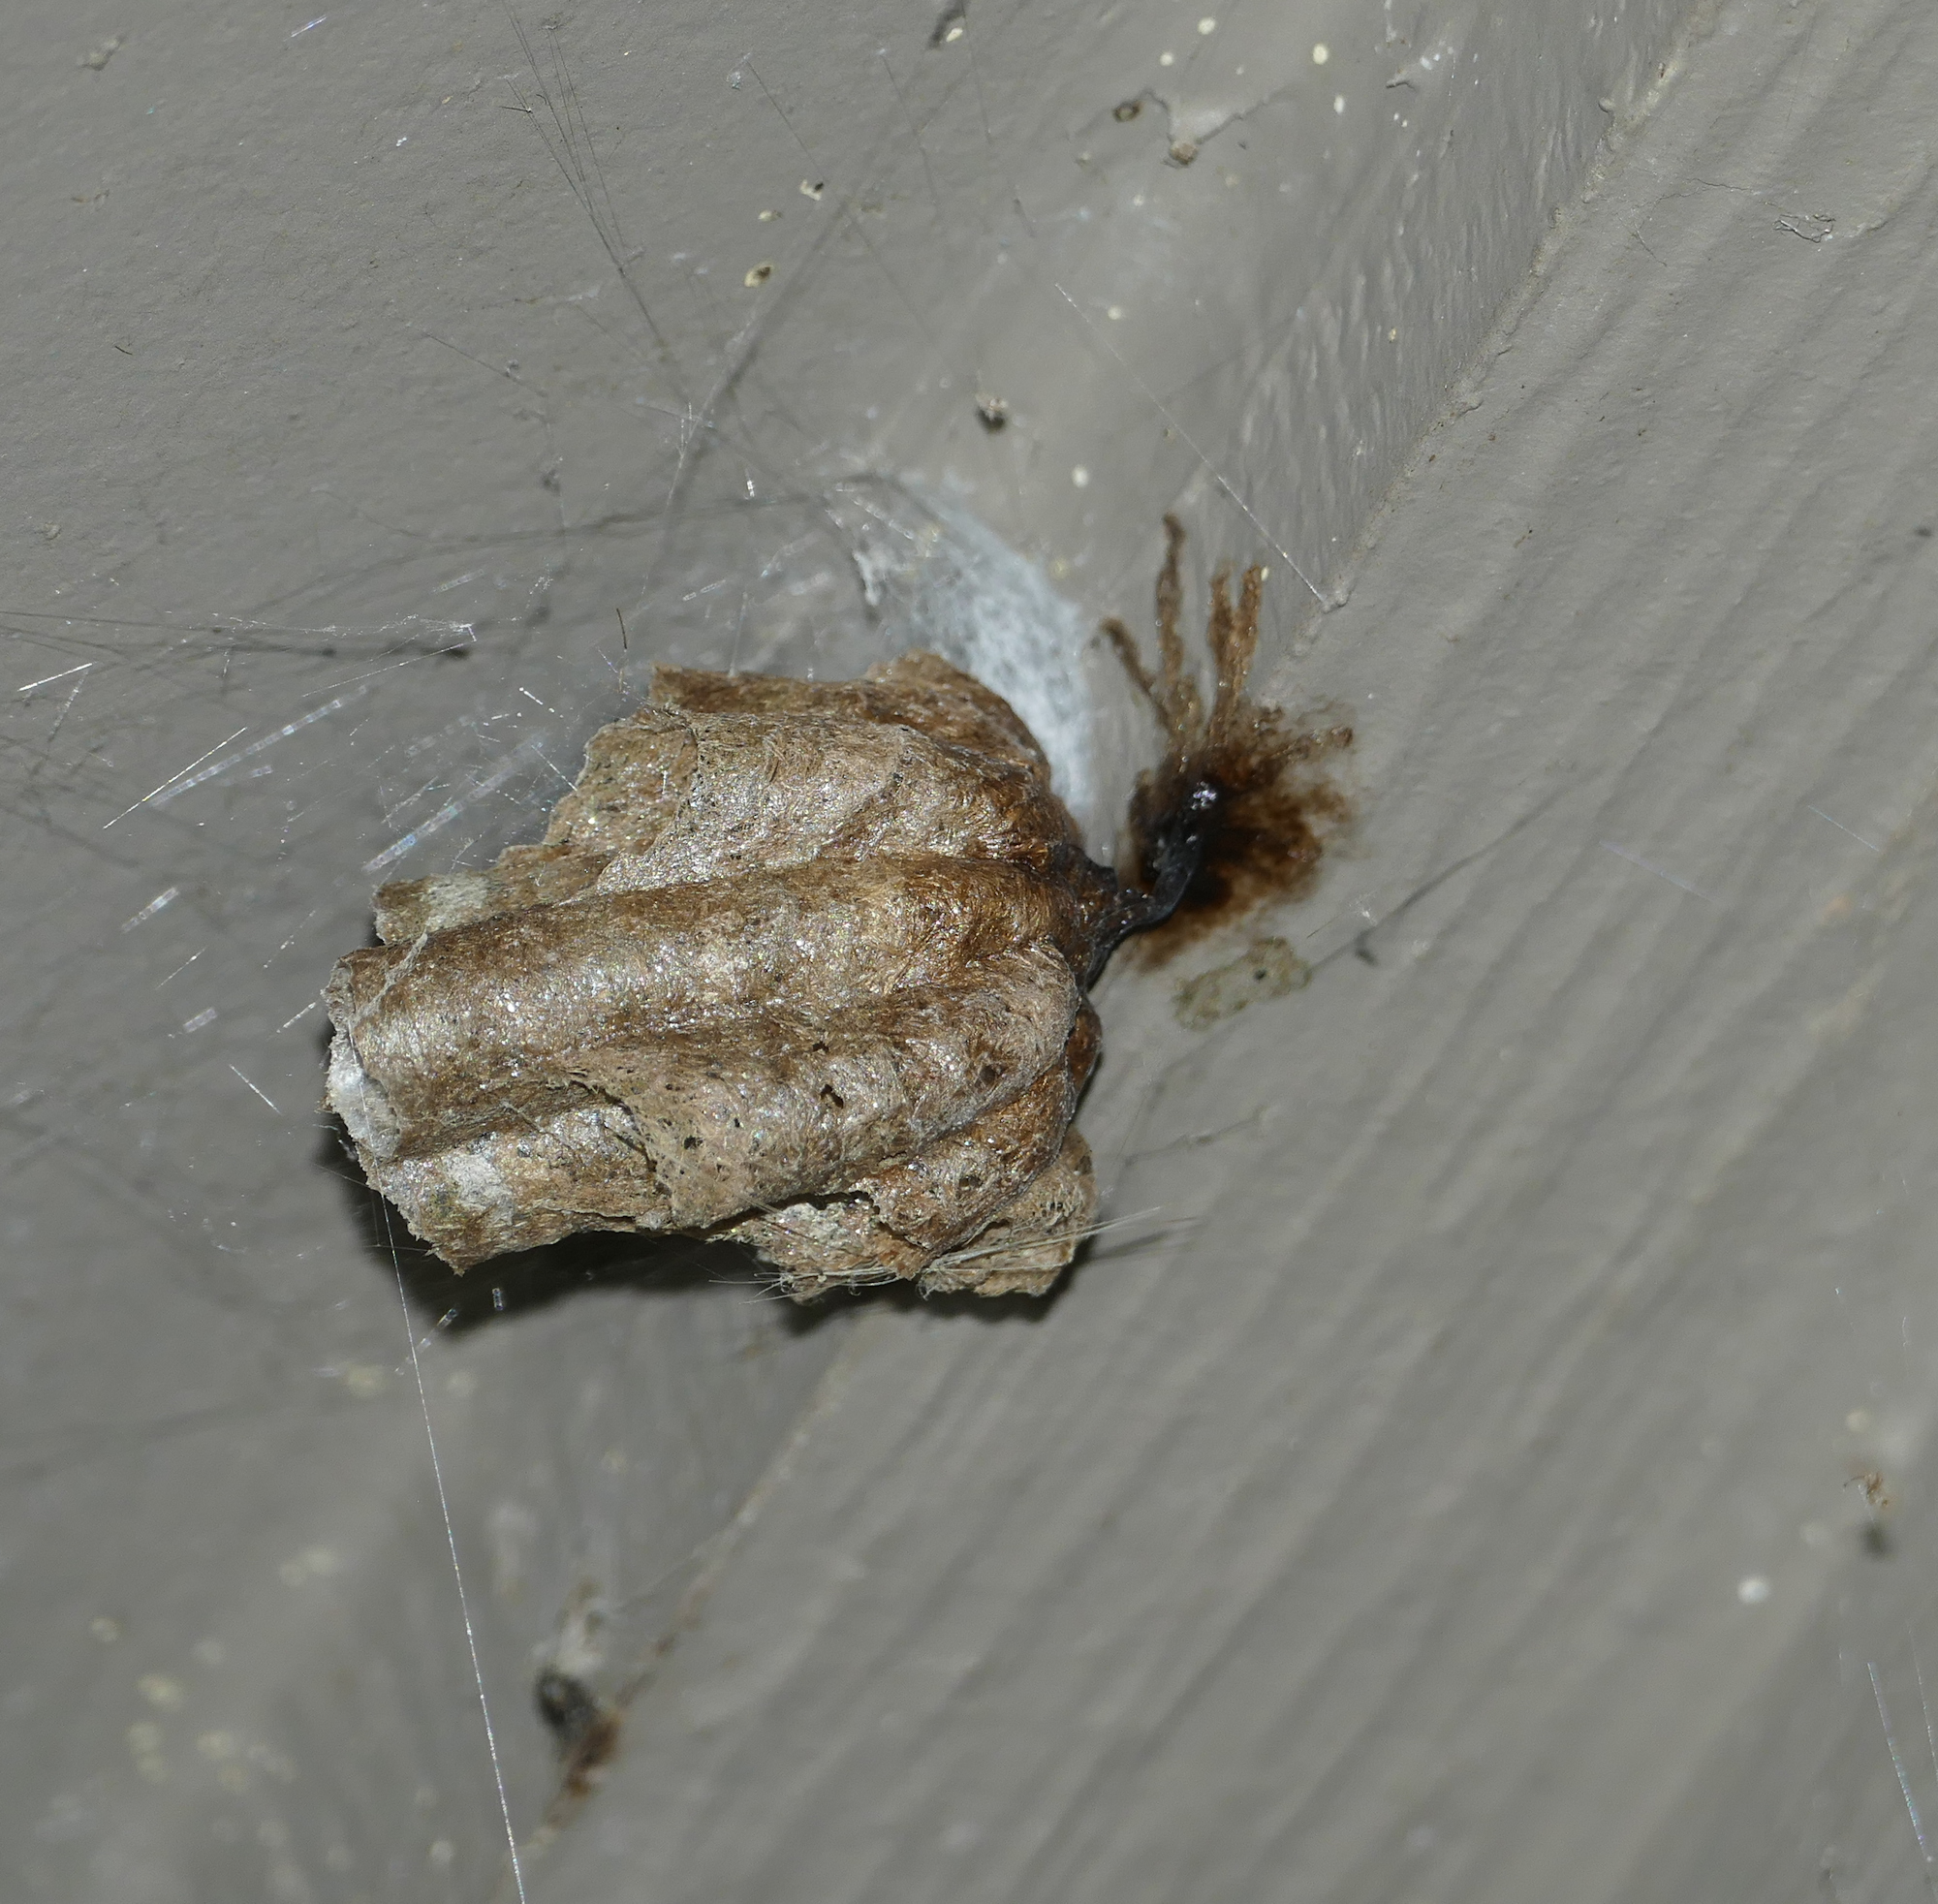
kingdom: Animalia
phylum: Arthropoda
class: Insecta
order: Hymenoptera
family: Vespidae
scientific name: Vespidae
